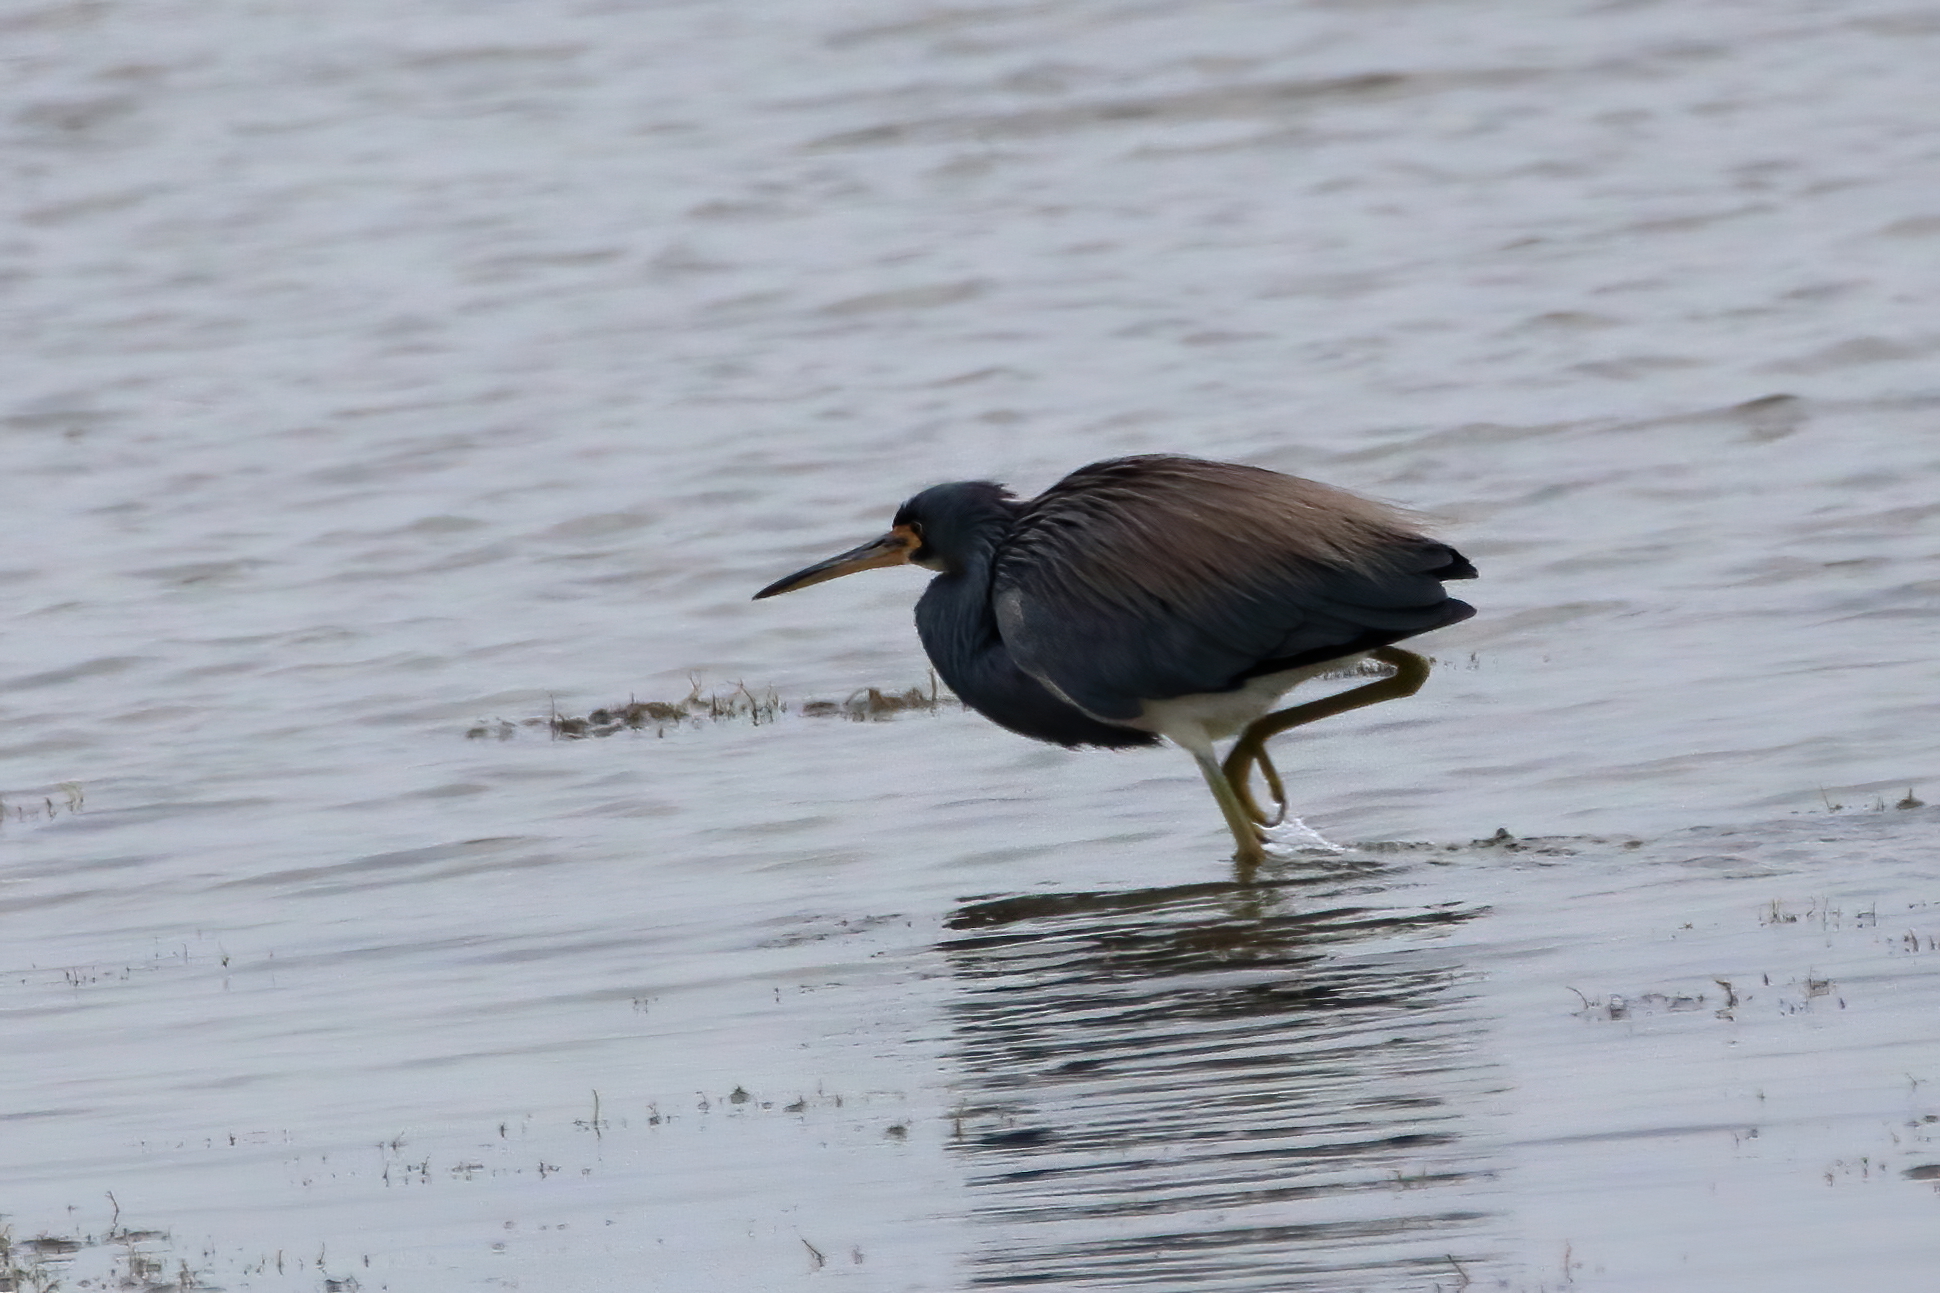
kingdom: Animalia
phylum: Chordata
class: Aves
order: Pelecaniformes
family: Ardeidae
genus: Egretta
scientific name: Egretta tricolor
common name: Tricolored heron
